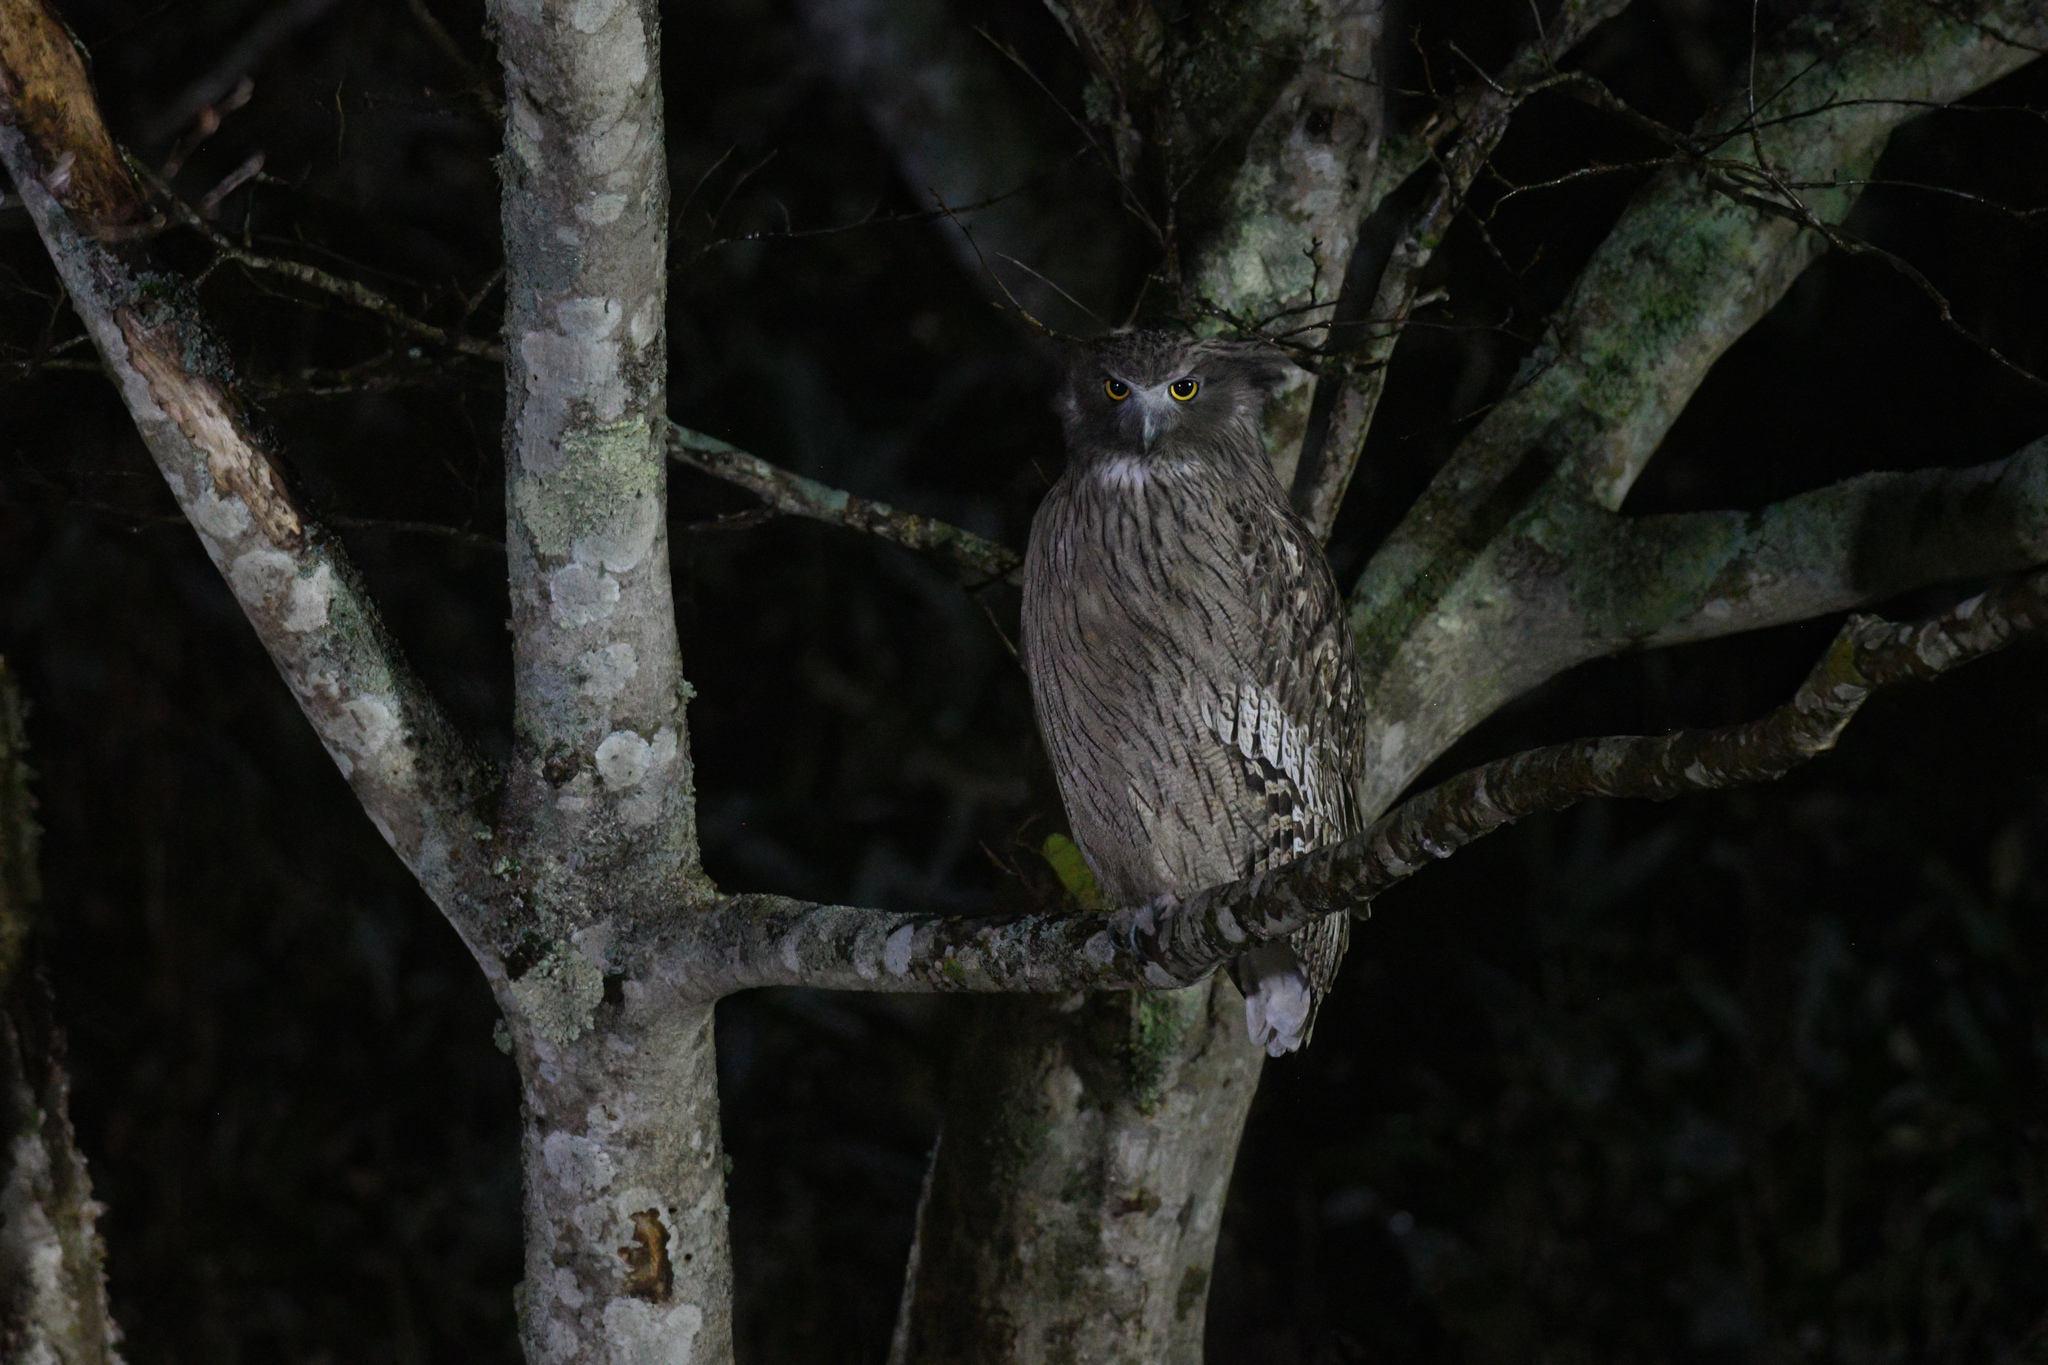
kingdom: Animalia
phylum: Chordata
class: Aves
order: Strigiformes
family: Strigidae
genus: Bubo
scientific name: Bubo blakistoni
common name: Blakiston's fish owl
